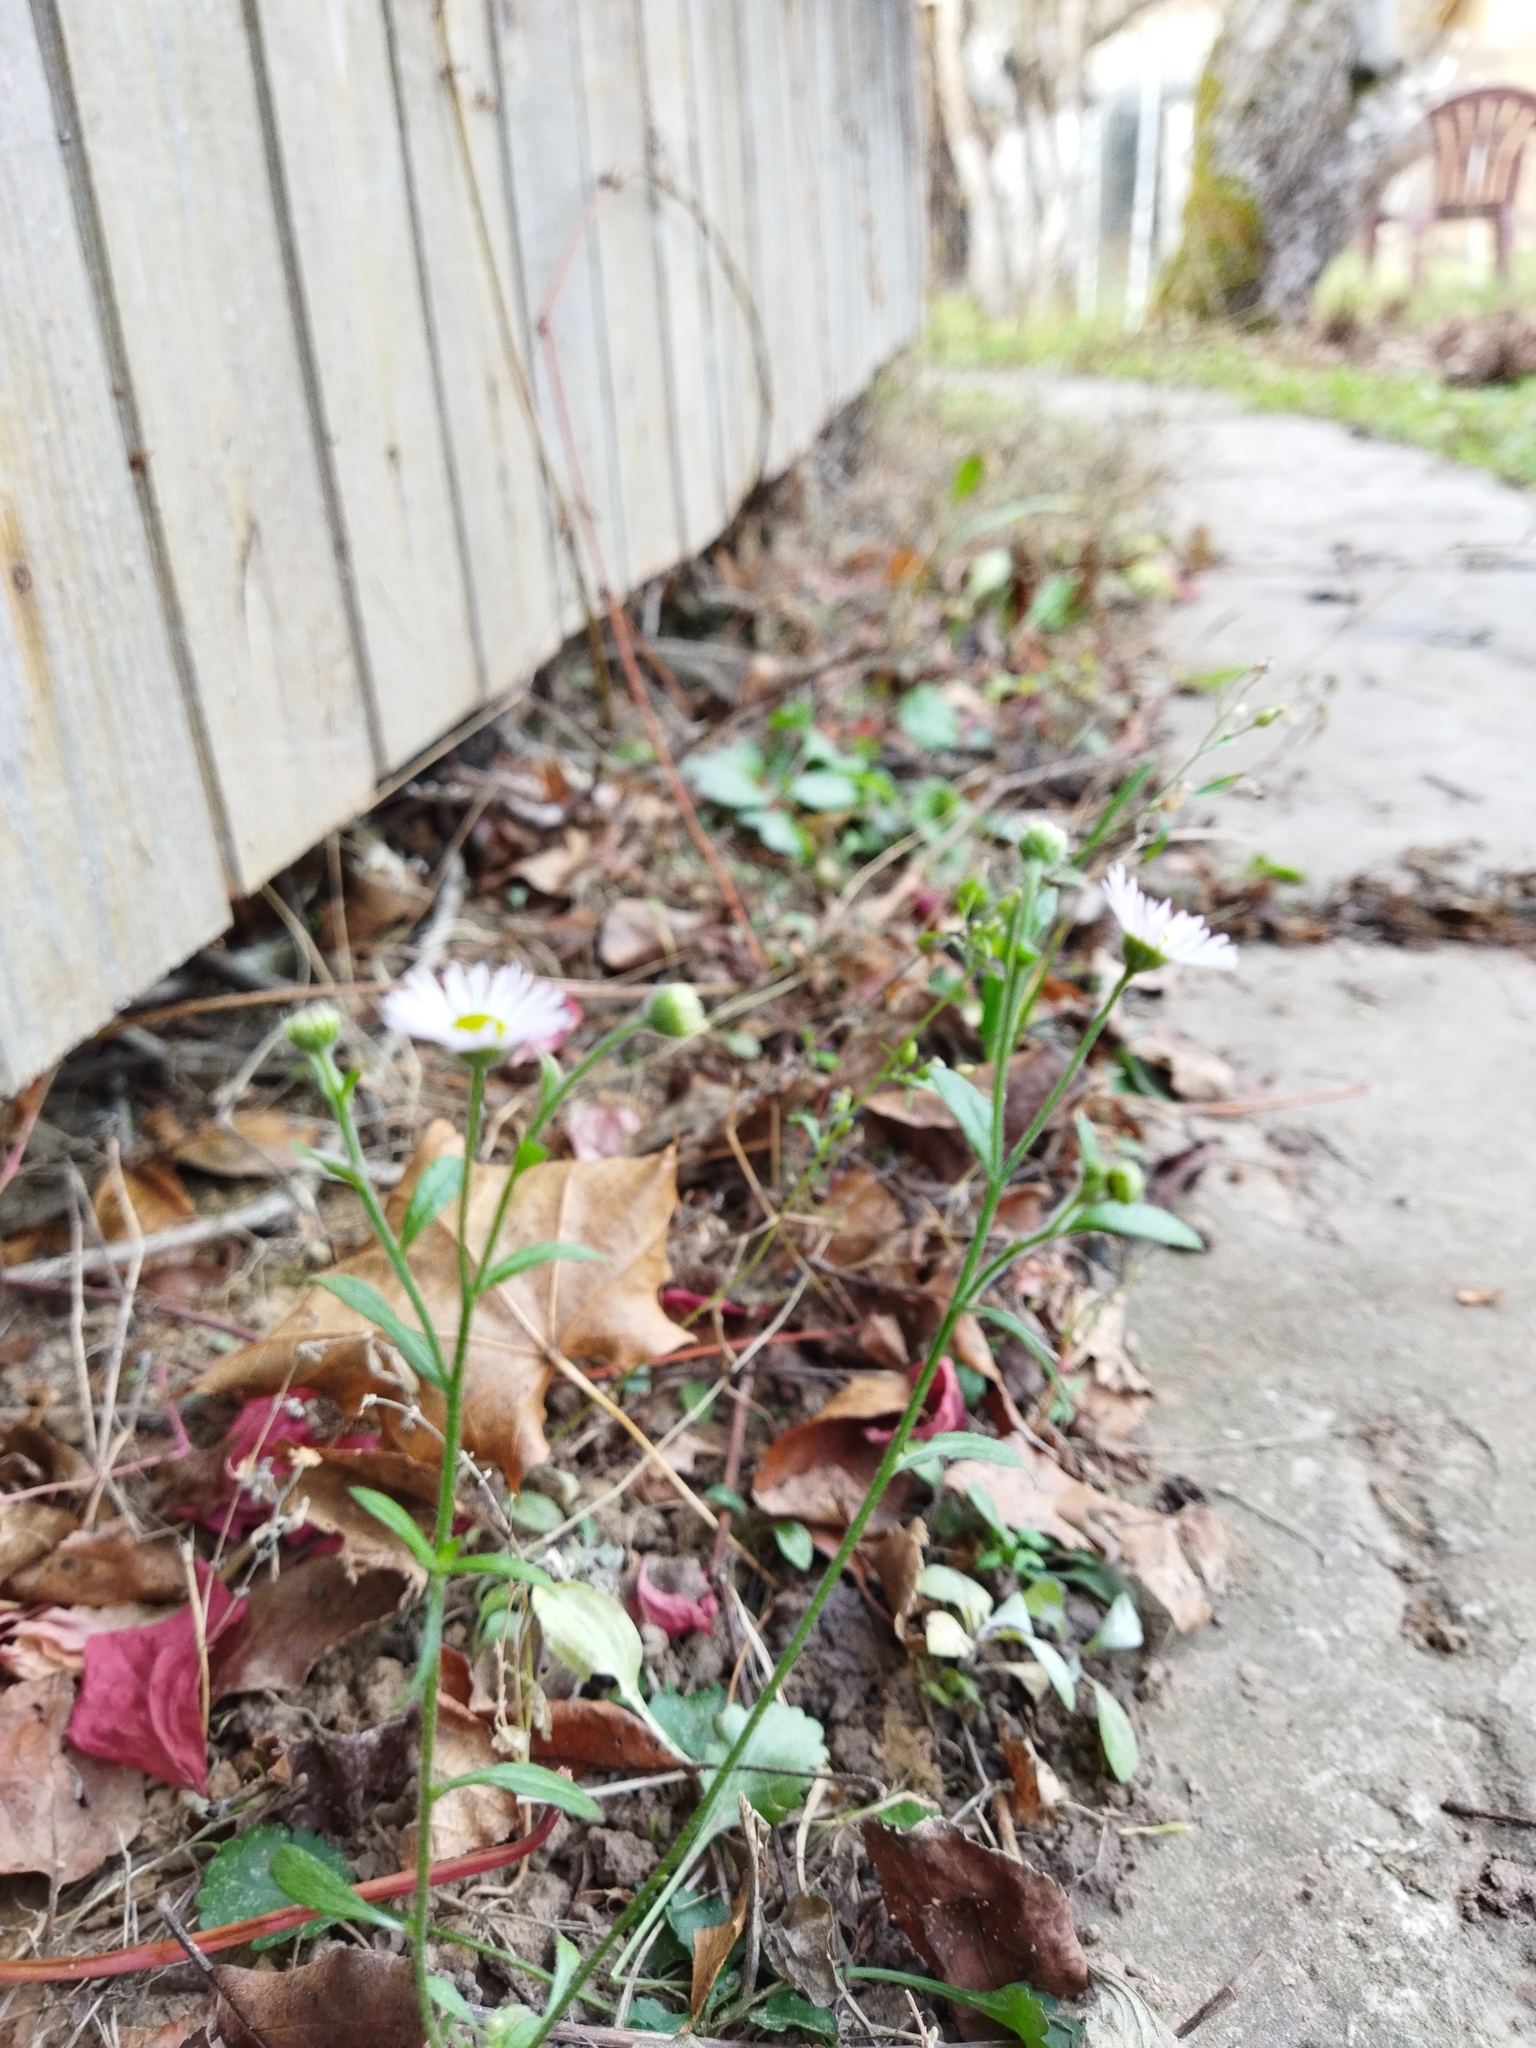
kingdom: Plantae
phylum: Tracheophyta
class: Magnoliopsida
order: Asterales
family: Asteraceae
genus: Erigeron
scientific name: Erigeron annuus
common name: Tall fleabane
